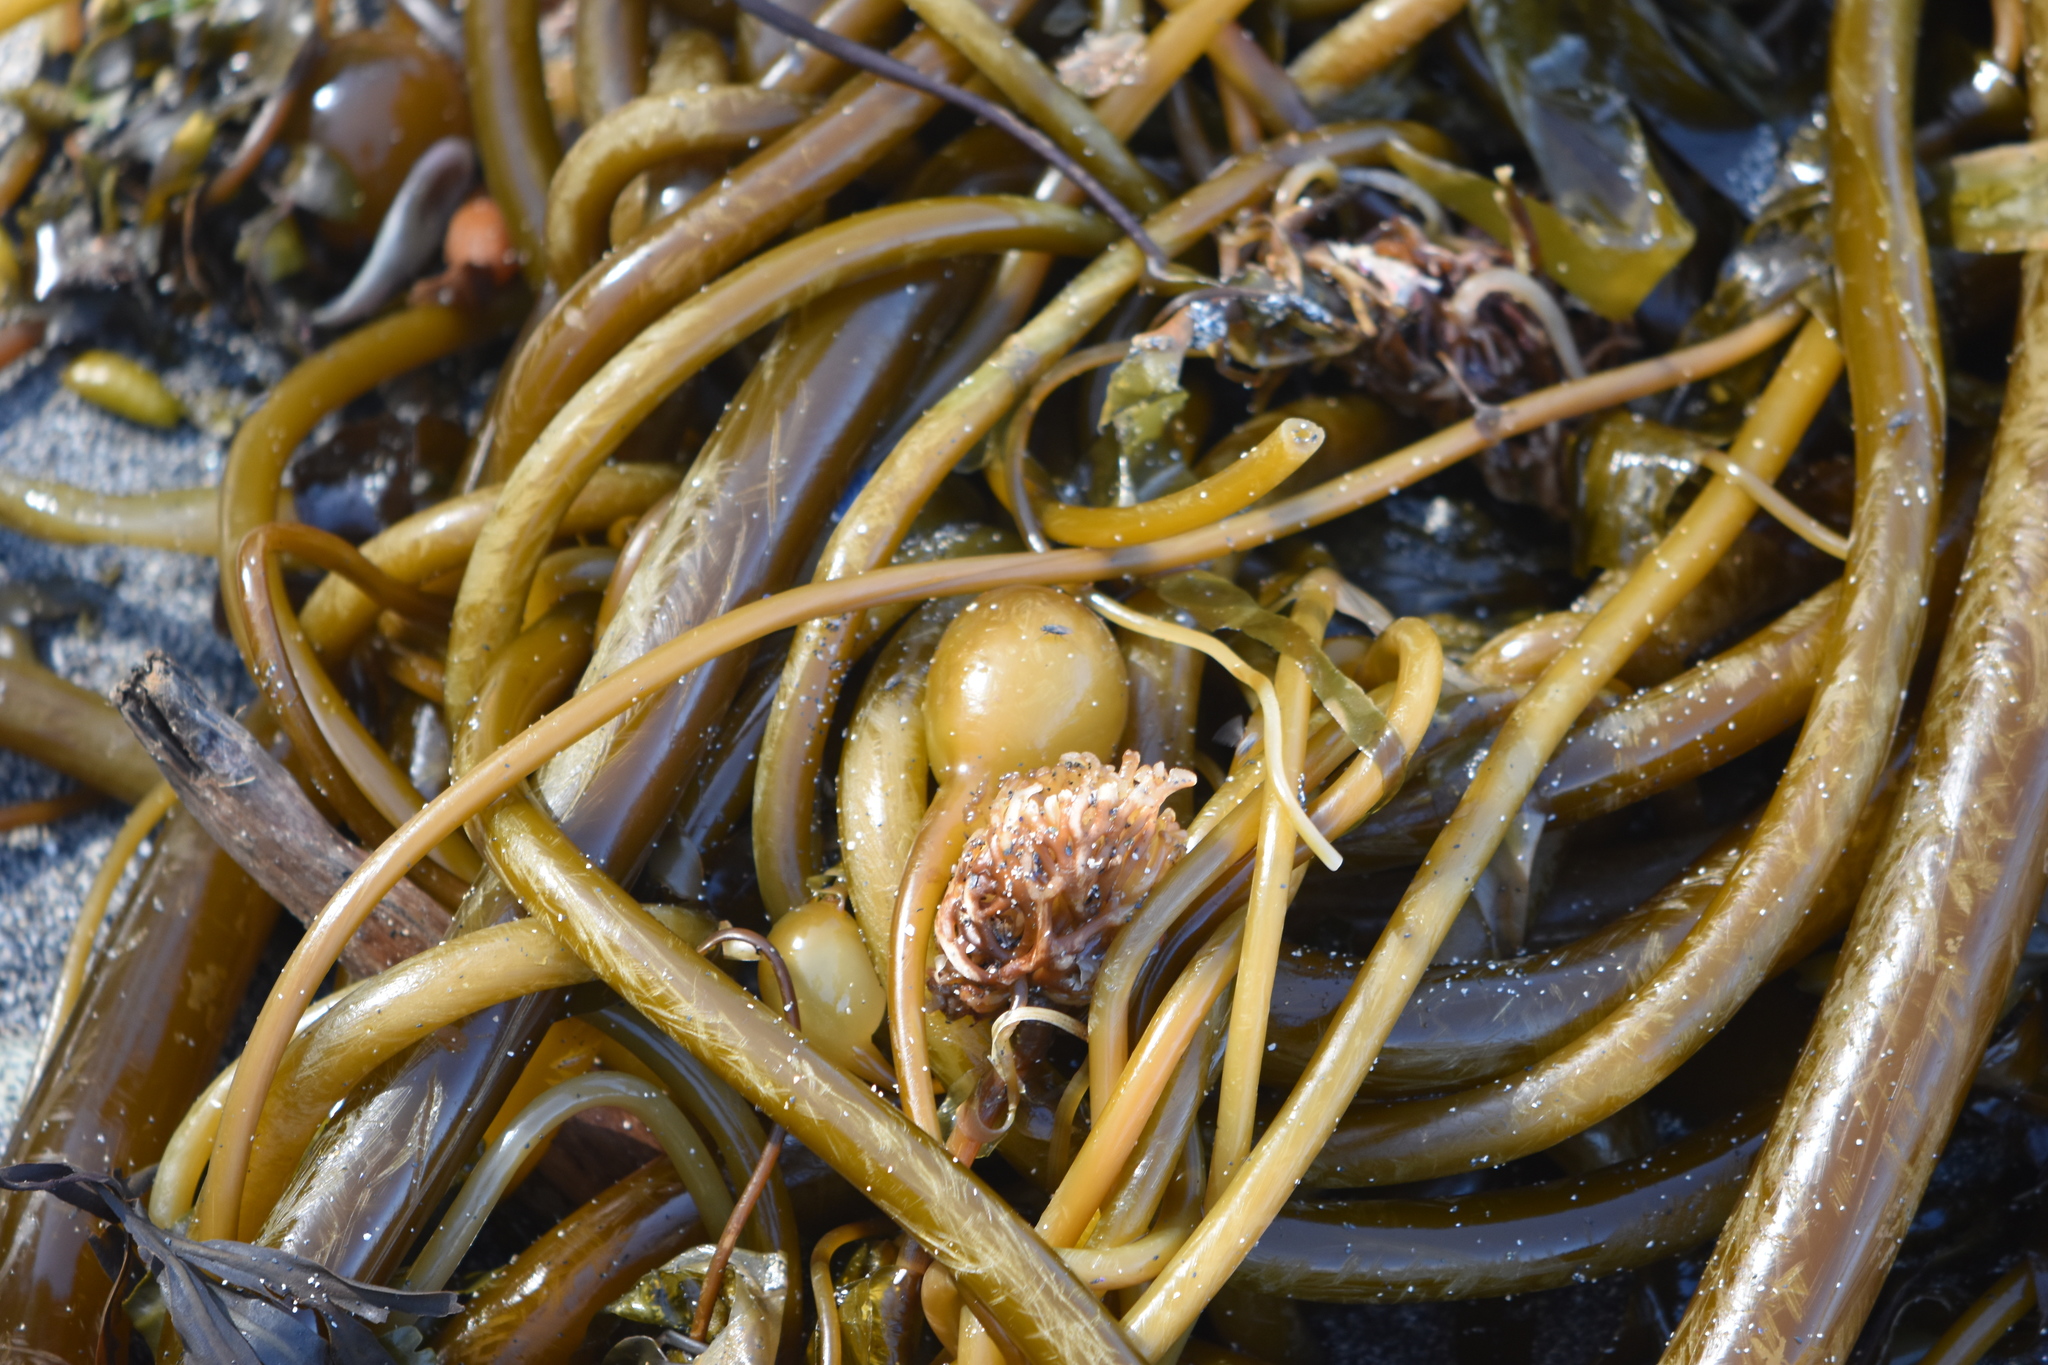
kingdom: Chromista
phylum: Ochrophyta
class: Phaeophyceae
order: Laminariales
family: Laminariaceae
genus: Nereocystis
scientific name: Nereocystis luetkeana
